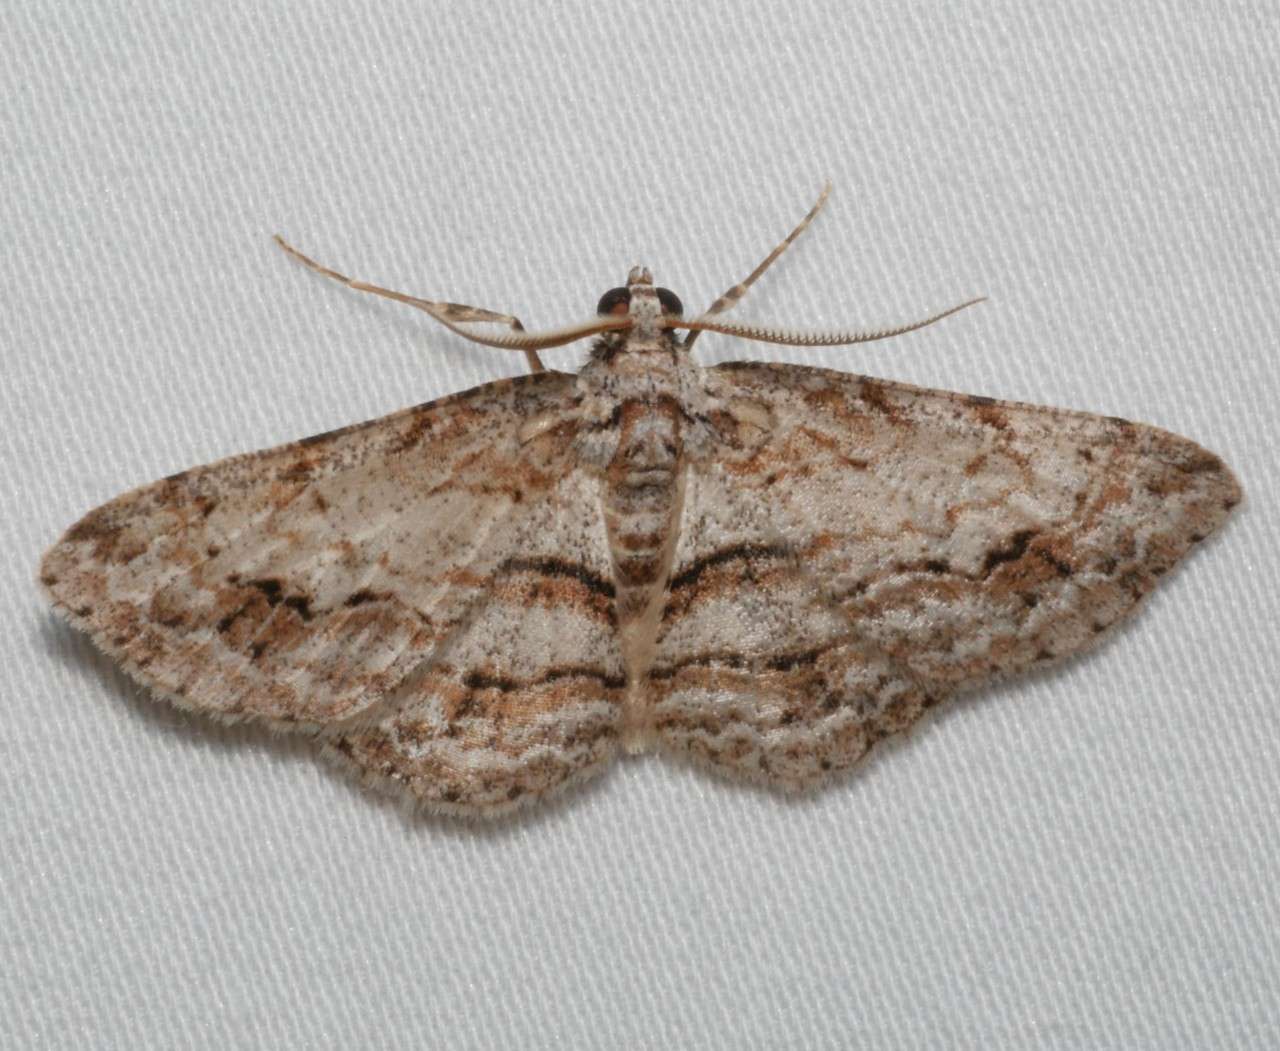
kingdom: Animalia
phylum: Arthropoda
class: Insecta
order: Lepidoptera
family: Geometridae
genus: Didymoctenia
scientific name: Didymoctenia exsuperata
